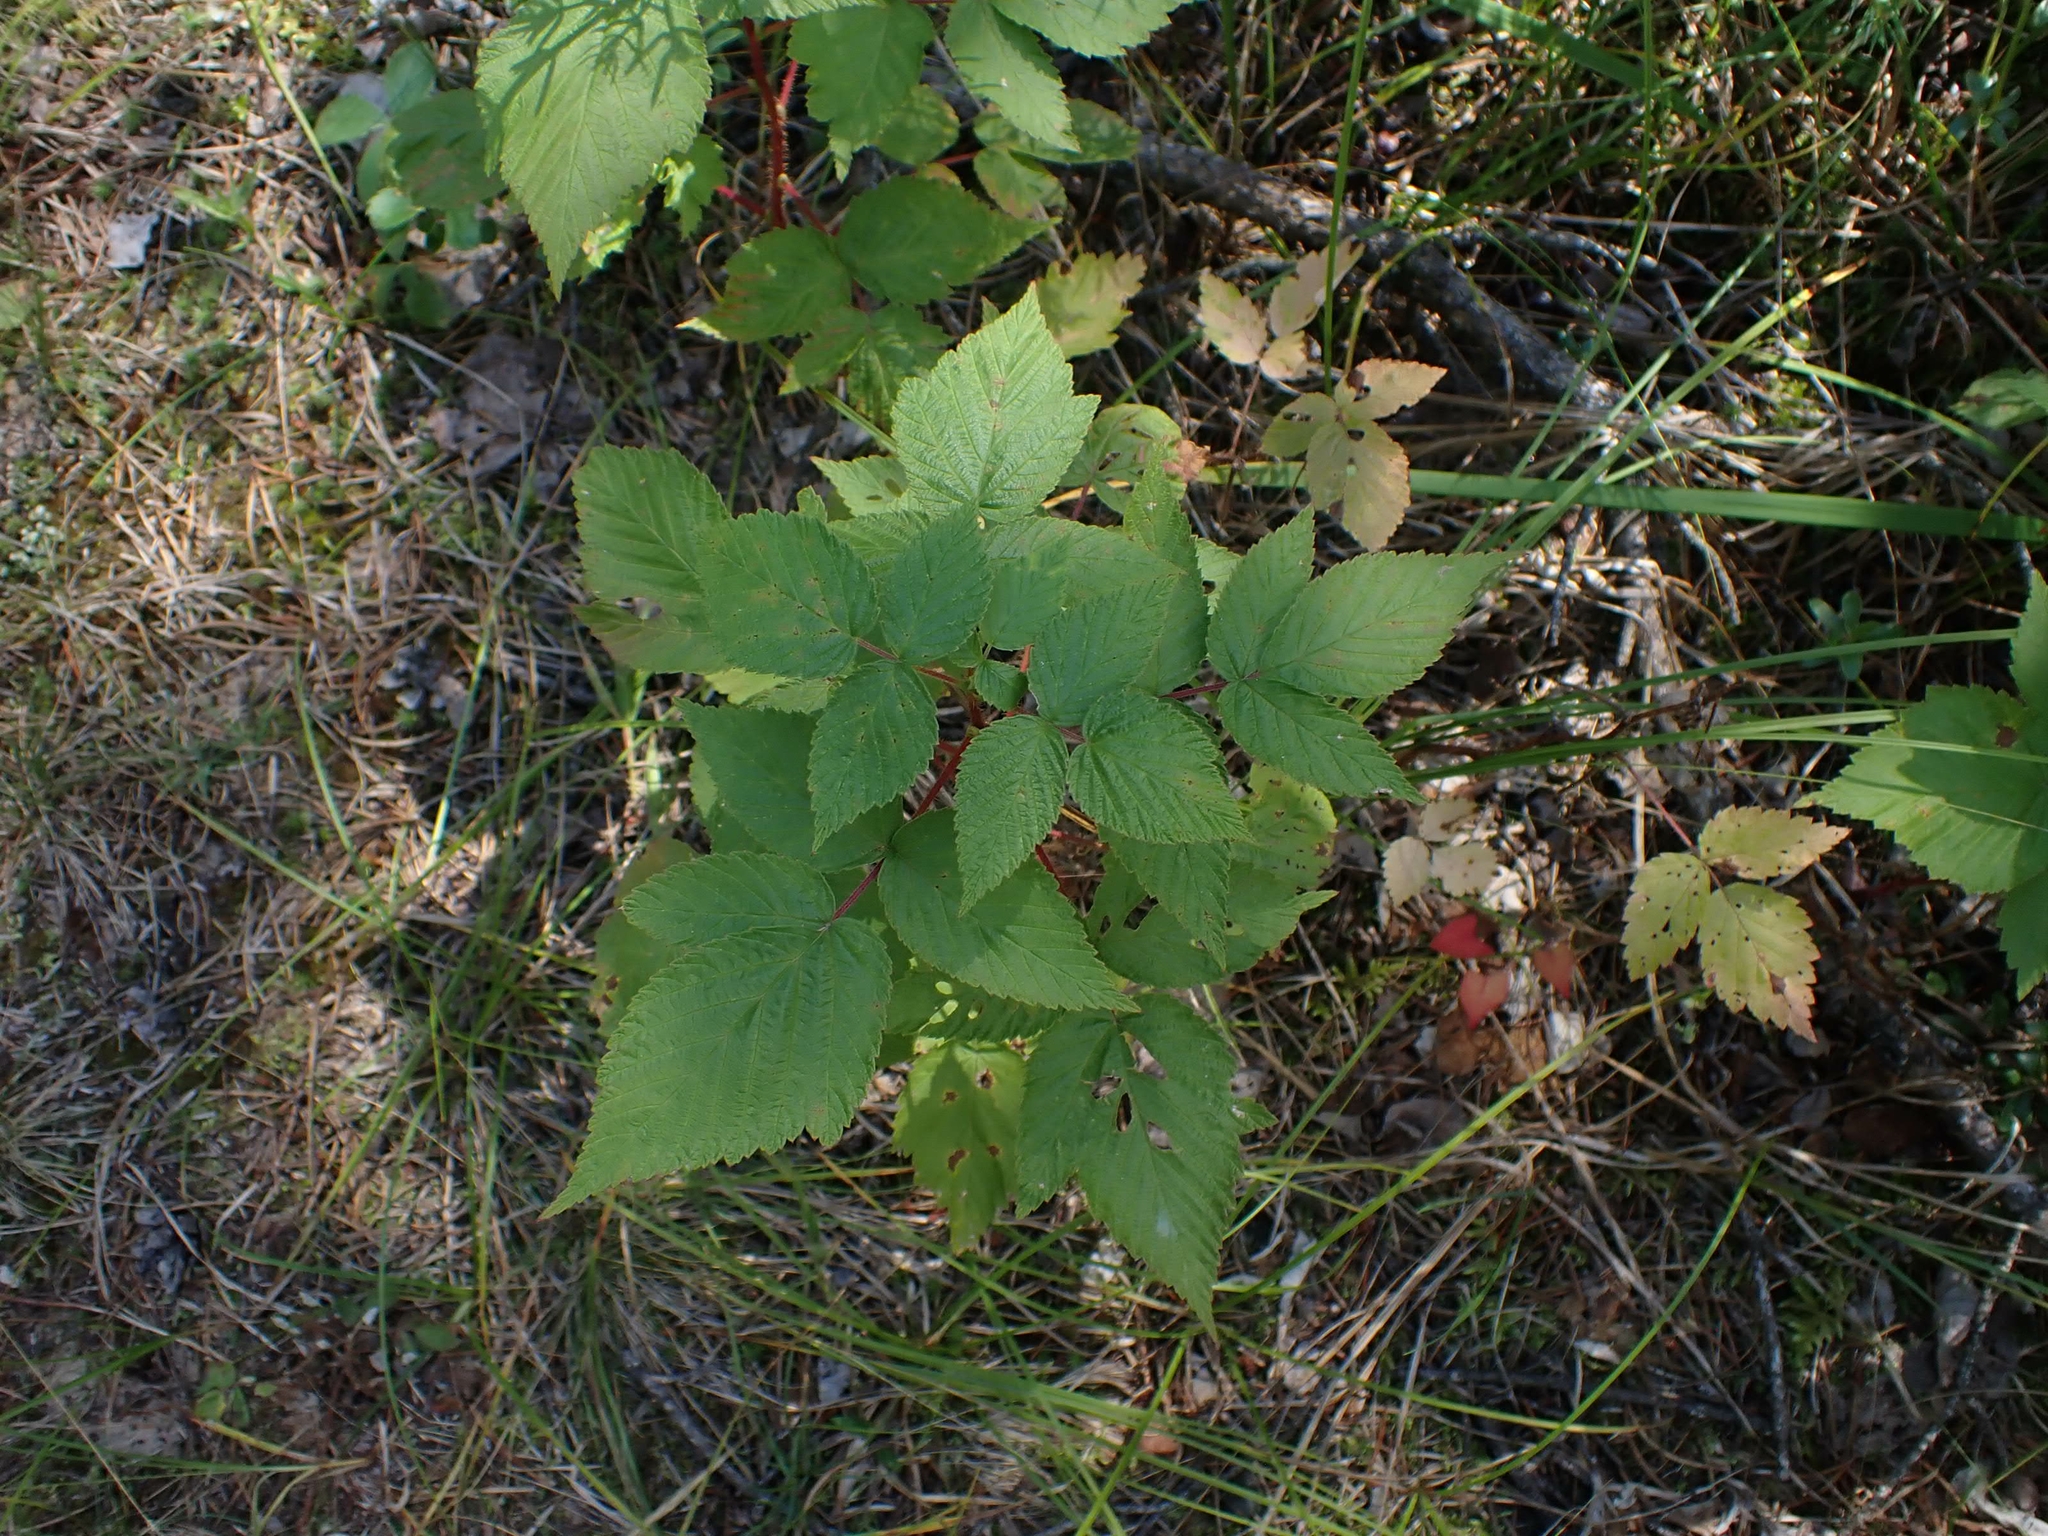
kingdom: Plantae
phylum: Tracheophyta
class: Magnoliopsida
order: Rosales
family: Rosaceae
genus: Rubus
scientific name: Rubus idaeus
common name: Raspberry
